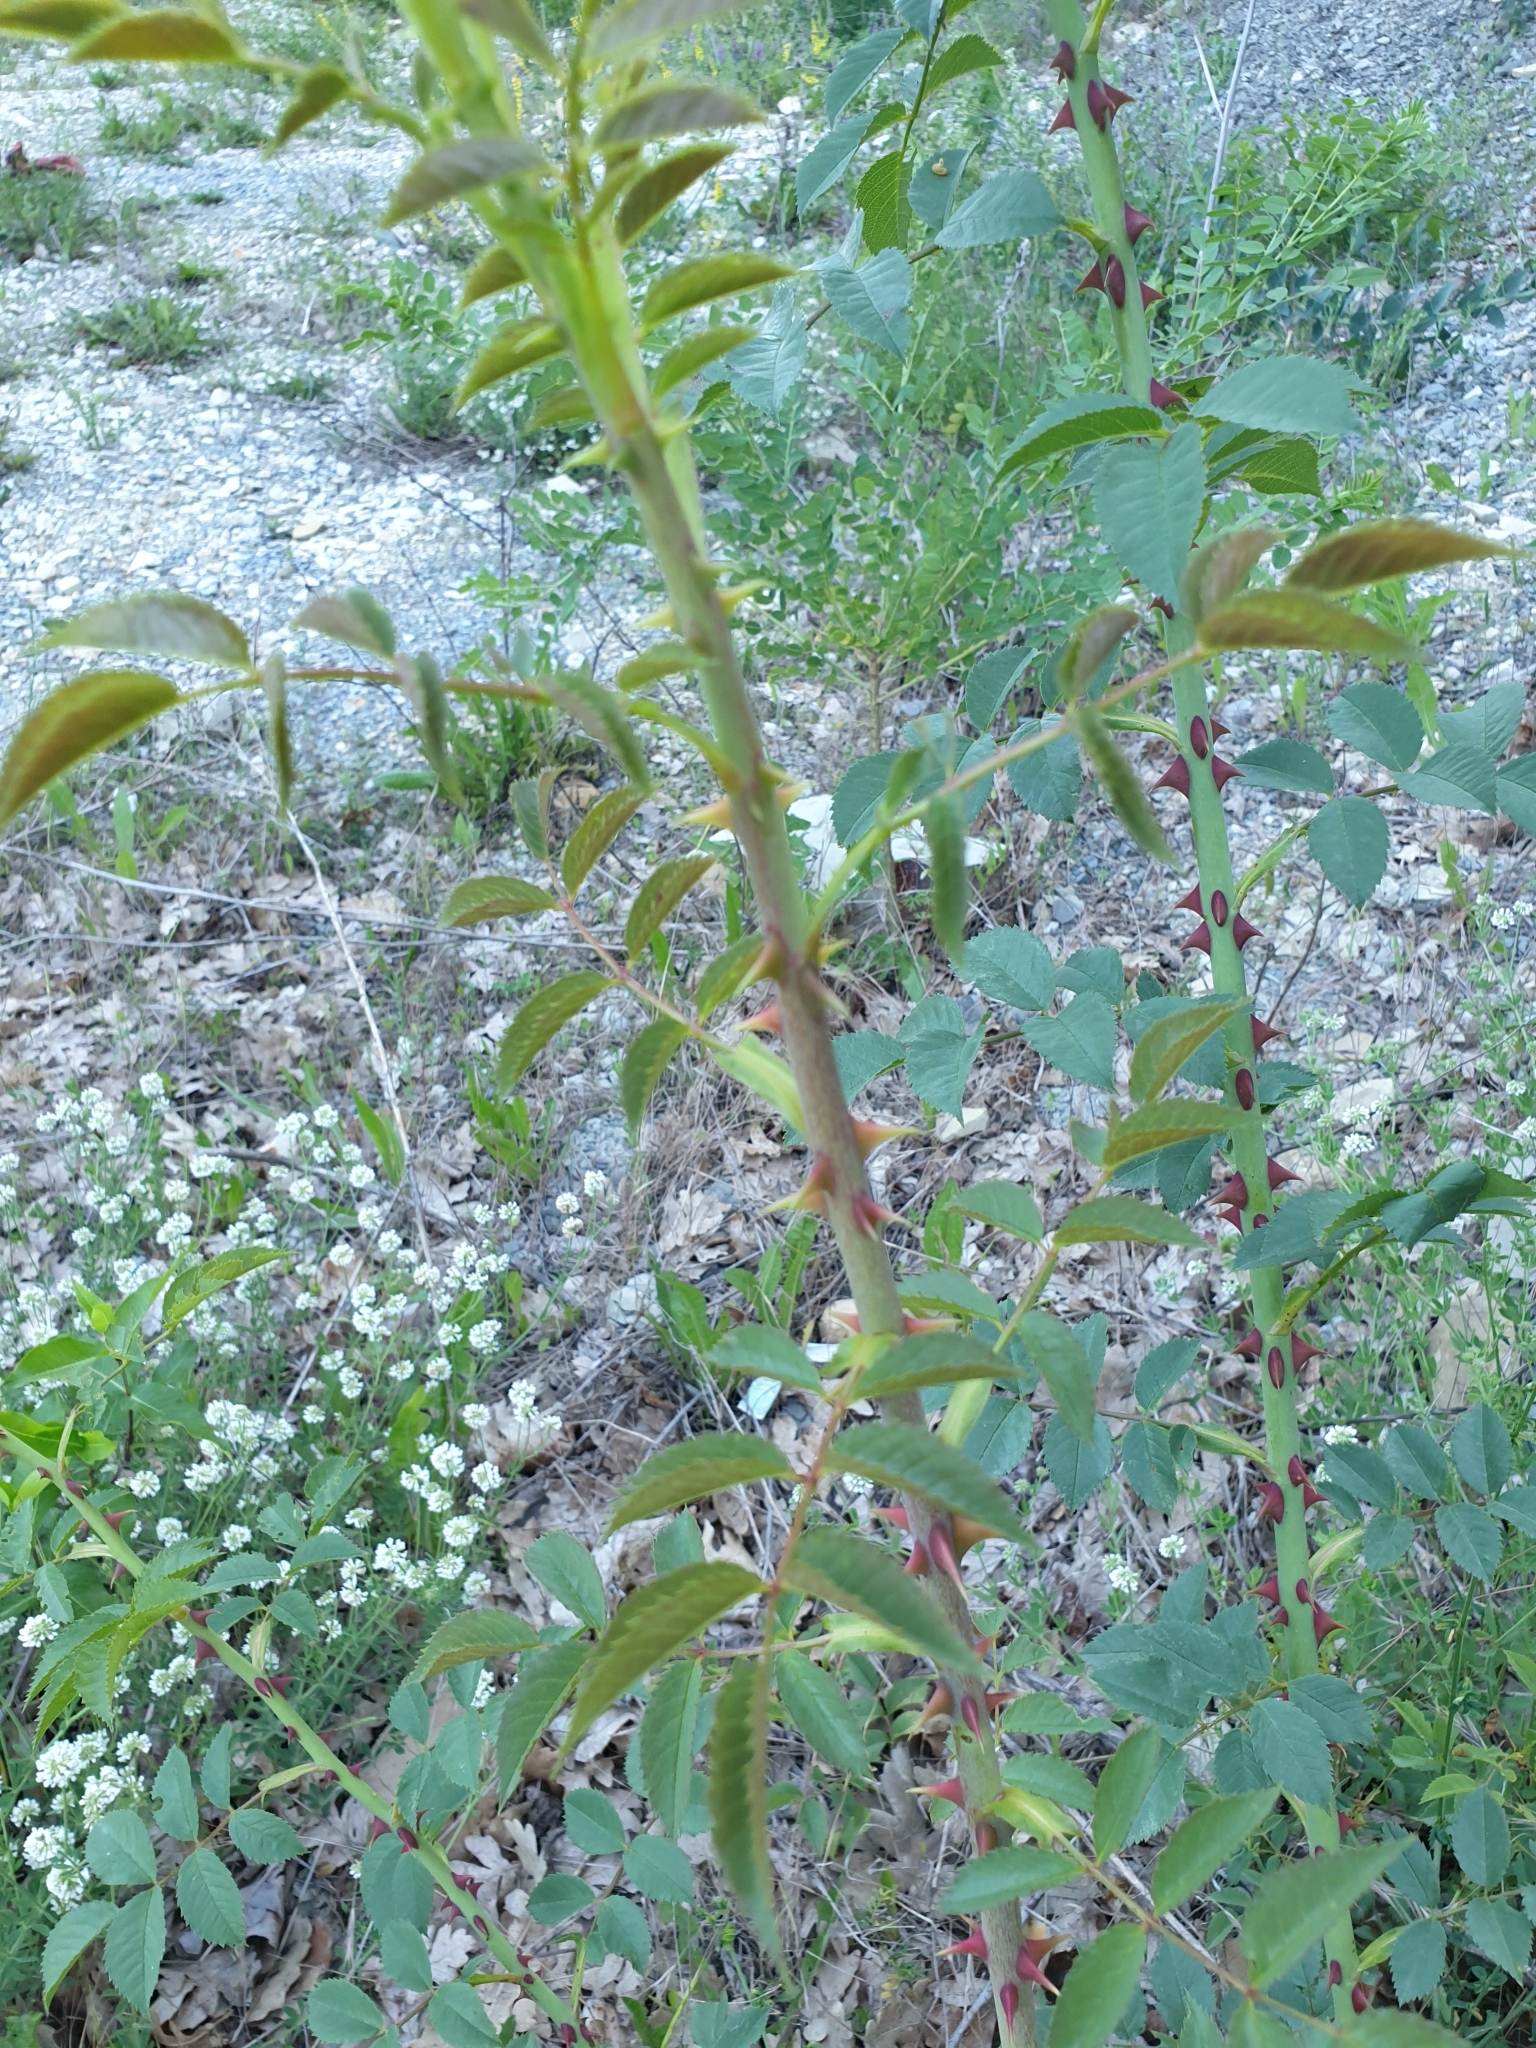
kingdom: Plantae
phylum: Tracheophyta
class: Magnoliopsida
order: Rosales
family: Rosaceae
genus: Rosa
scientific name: Rosa
